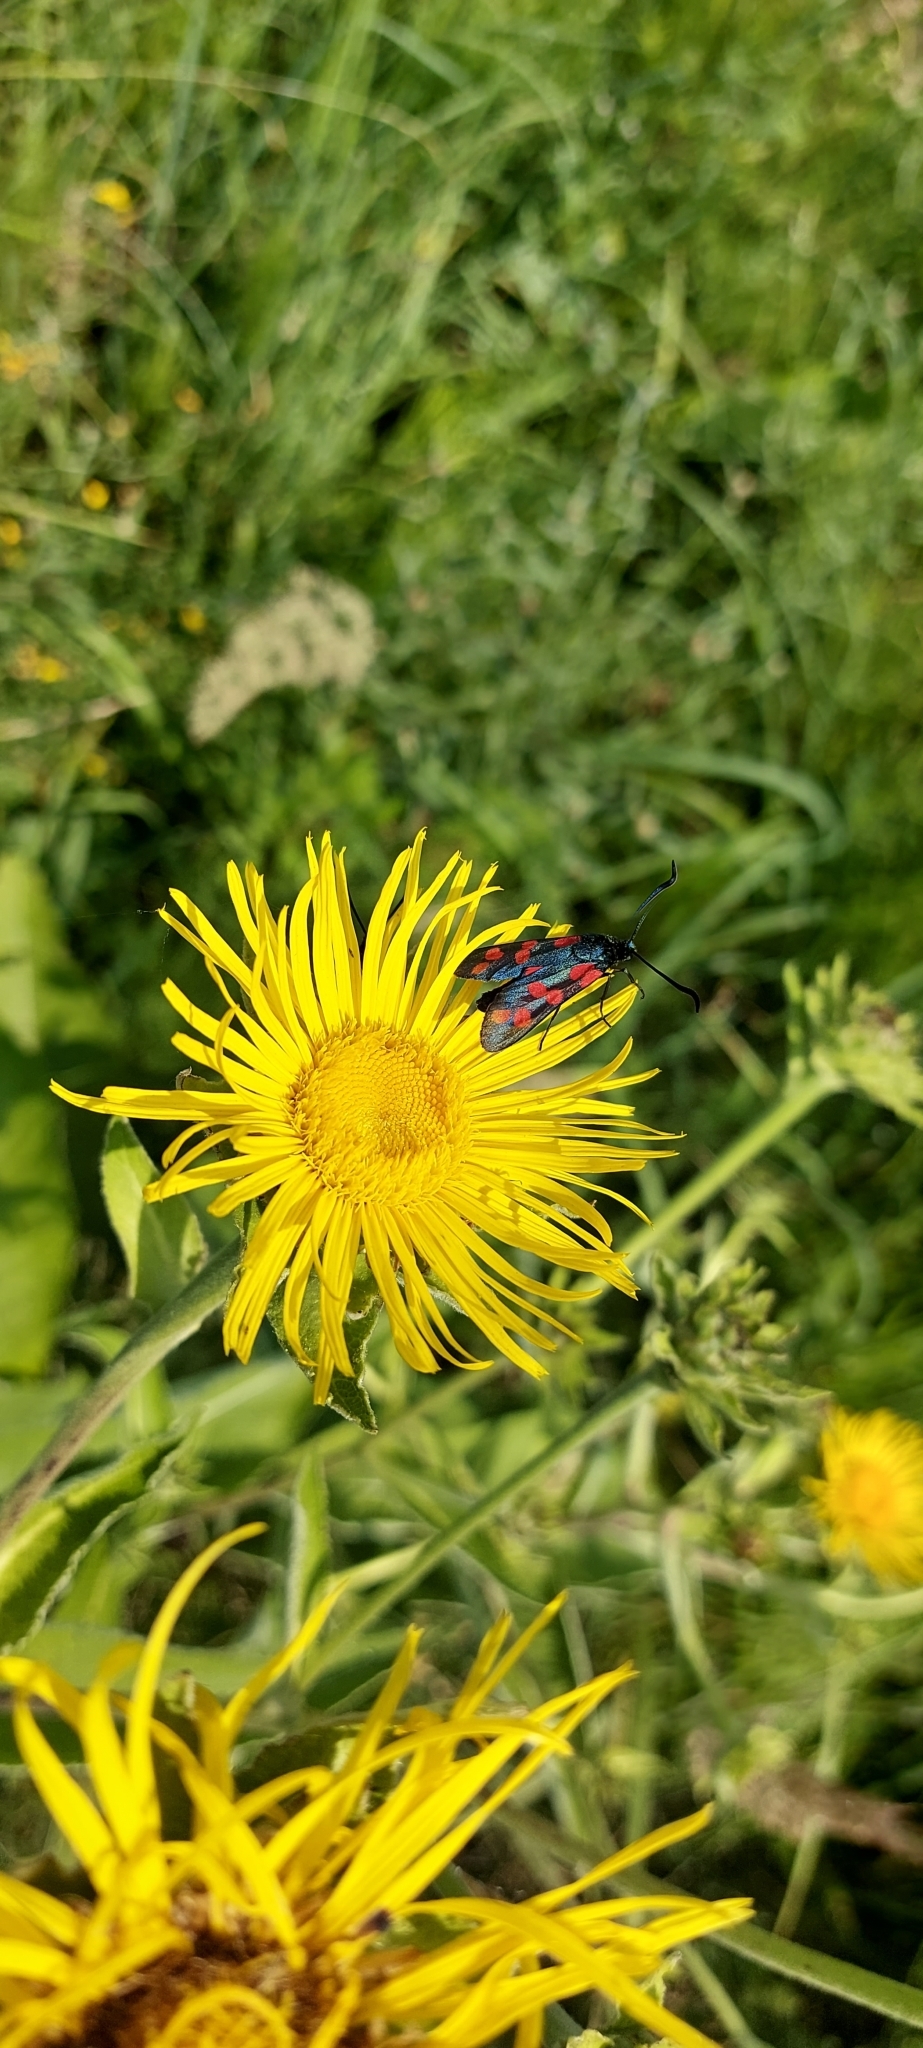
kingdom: Plantae
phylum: Tracheophyta
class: Magnoliopsida
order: Asterales
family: Asteraceae
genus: Inula
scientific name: Inula helenium
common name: Elecampane
